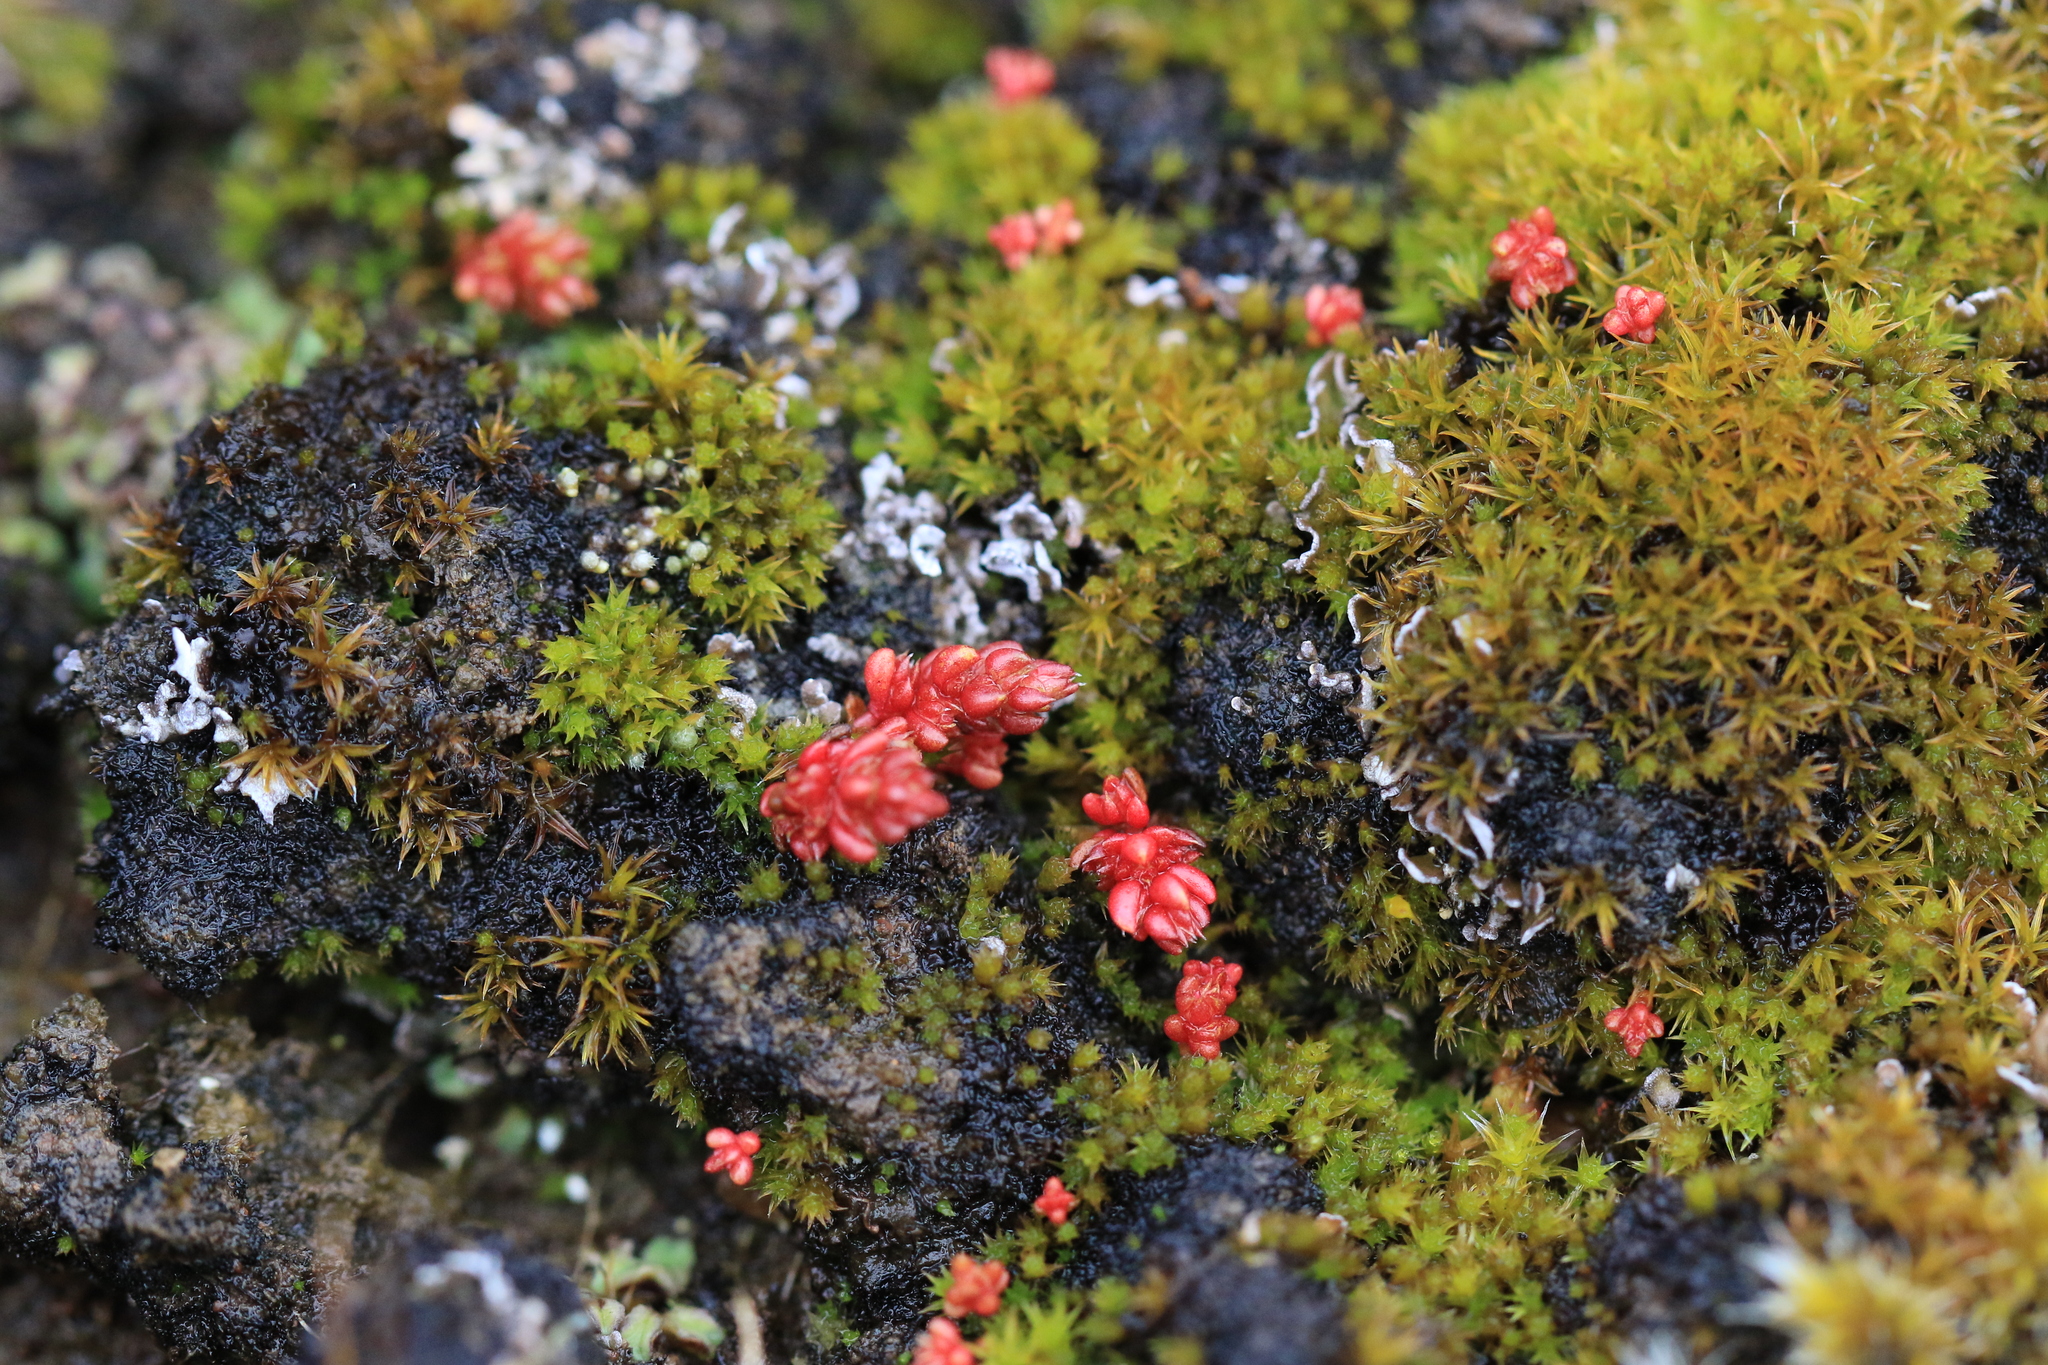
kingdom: Plantae
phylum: Tracheophyta
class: Magnoliopsida
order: Saxifragales
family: Crassulaceae
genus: Crassula
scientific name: Crassula tillaea
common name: Mossy stonecrop
